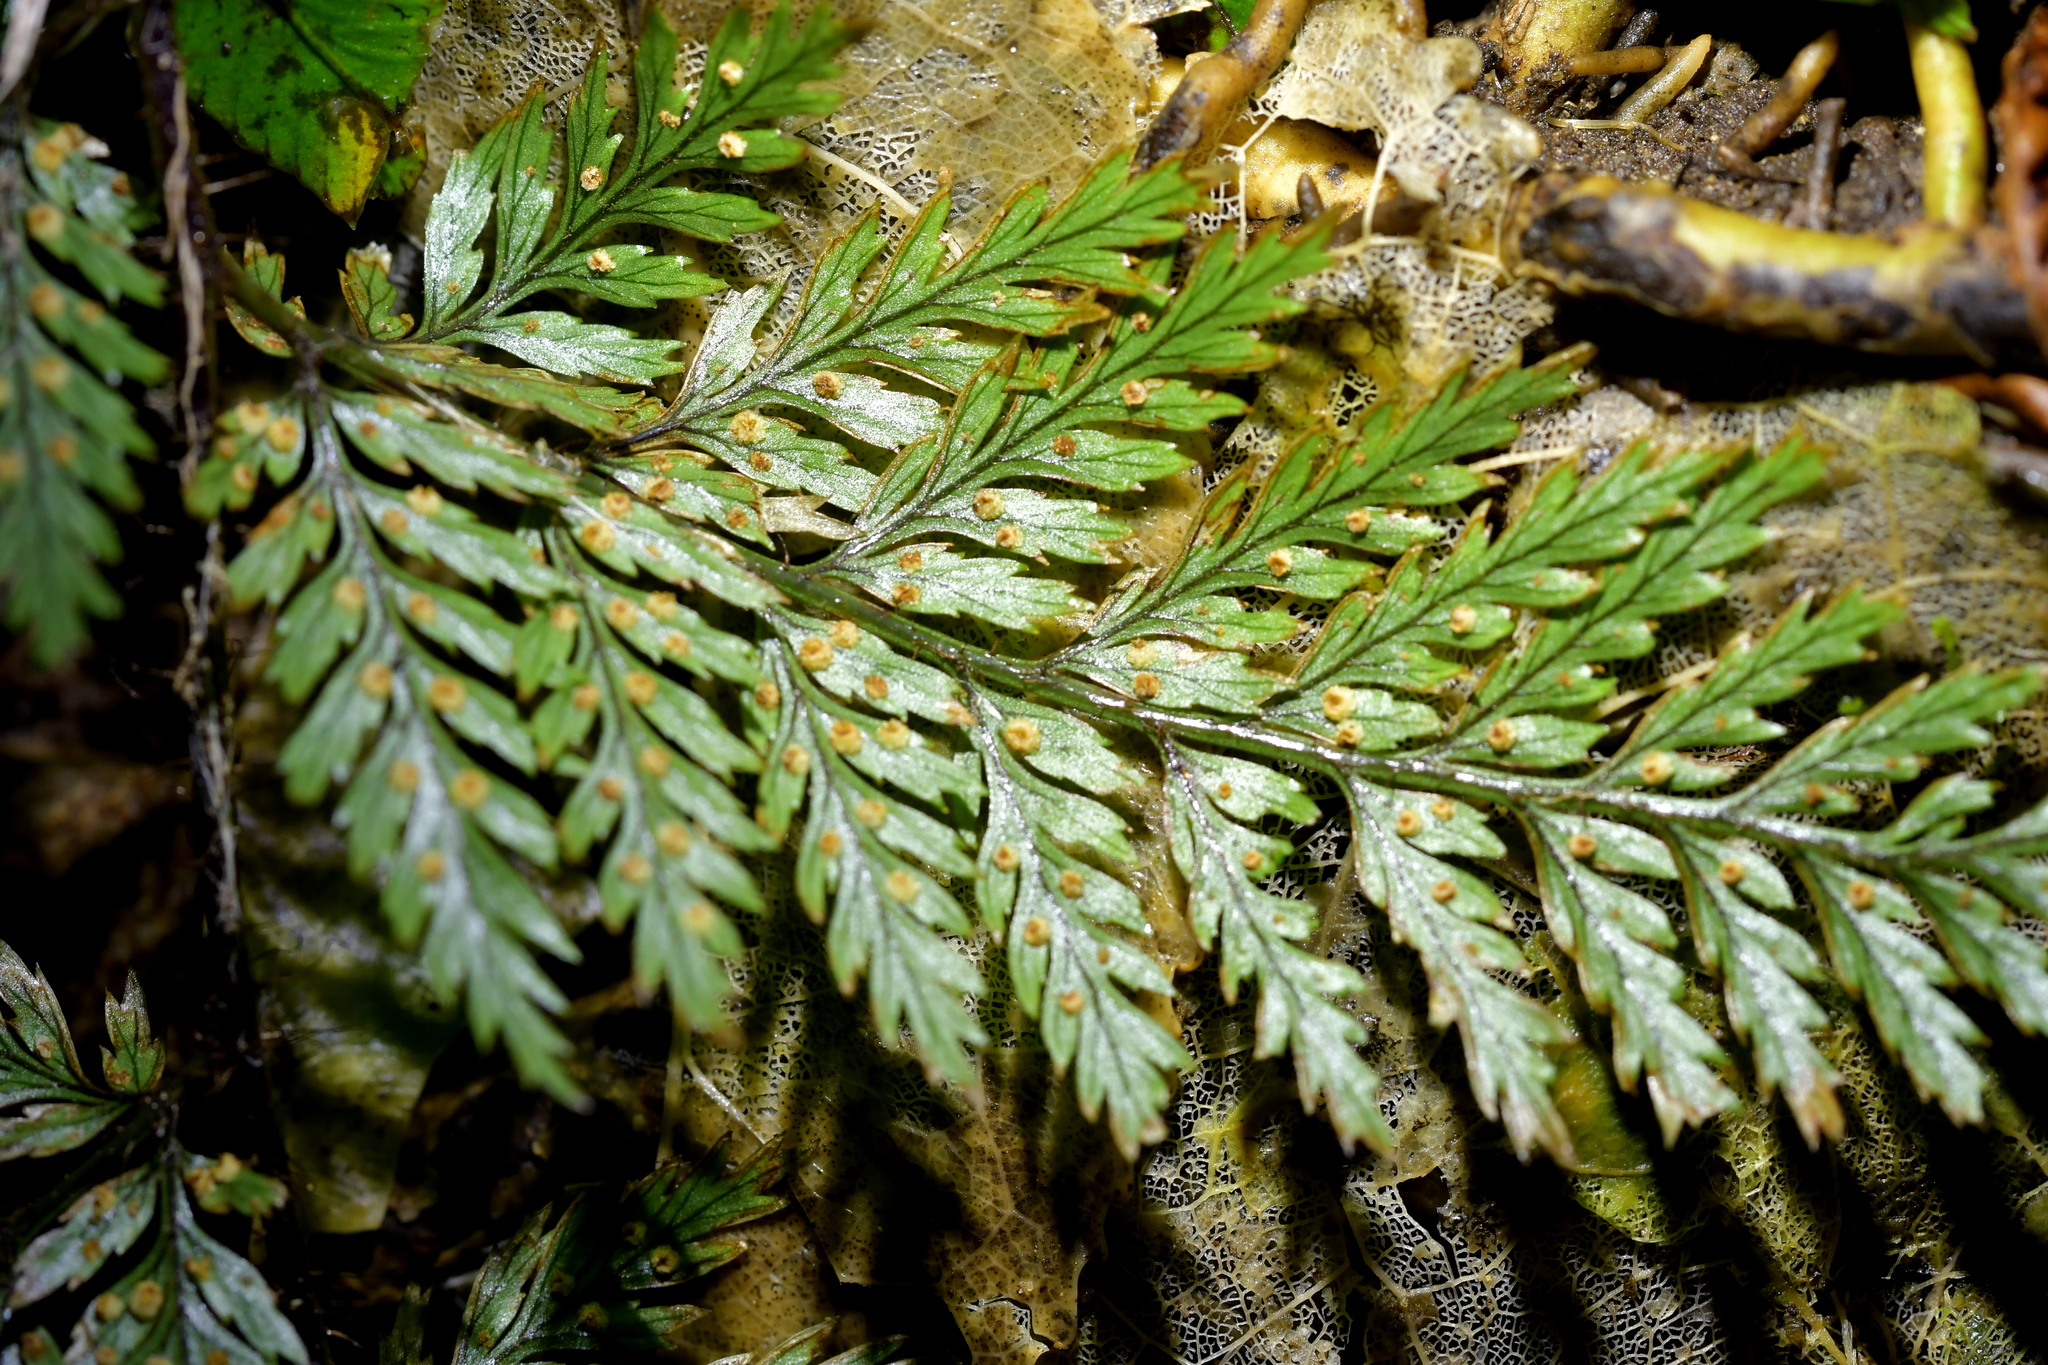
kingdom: Plantae
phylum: Tracheophyta
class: Polypodiopsida
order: Polypodiales
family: Dryopteridaceae
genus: Lastreopsis
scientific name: Lastreopsis hispida
